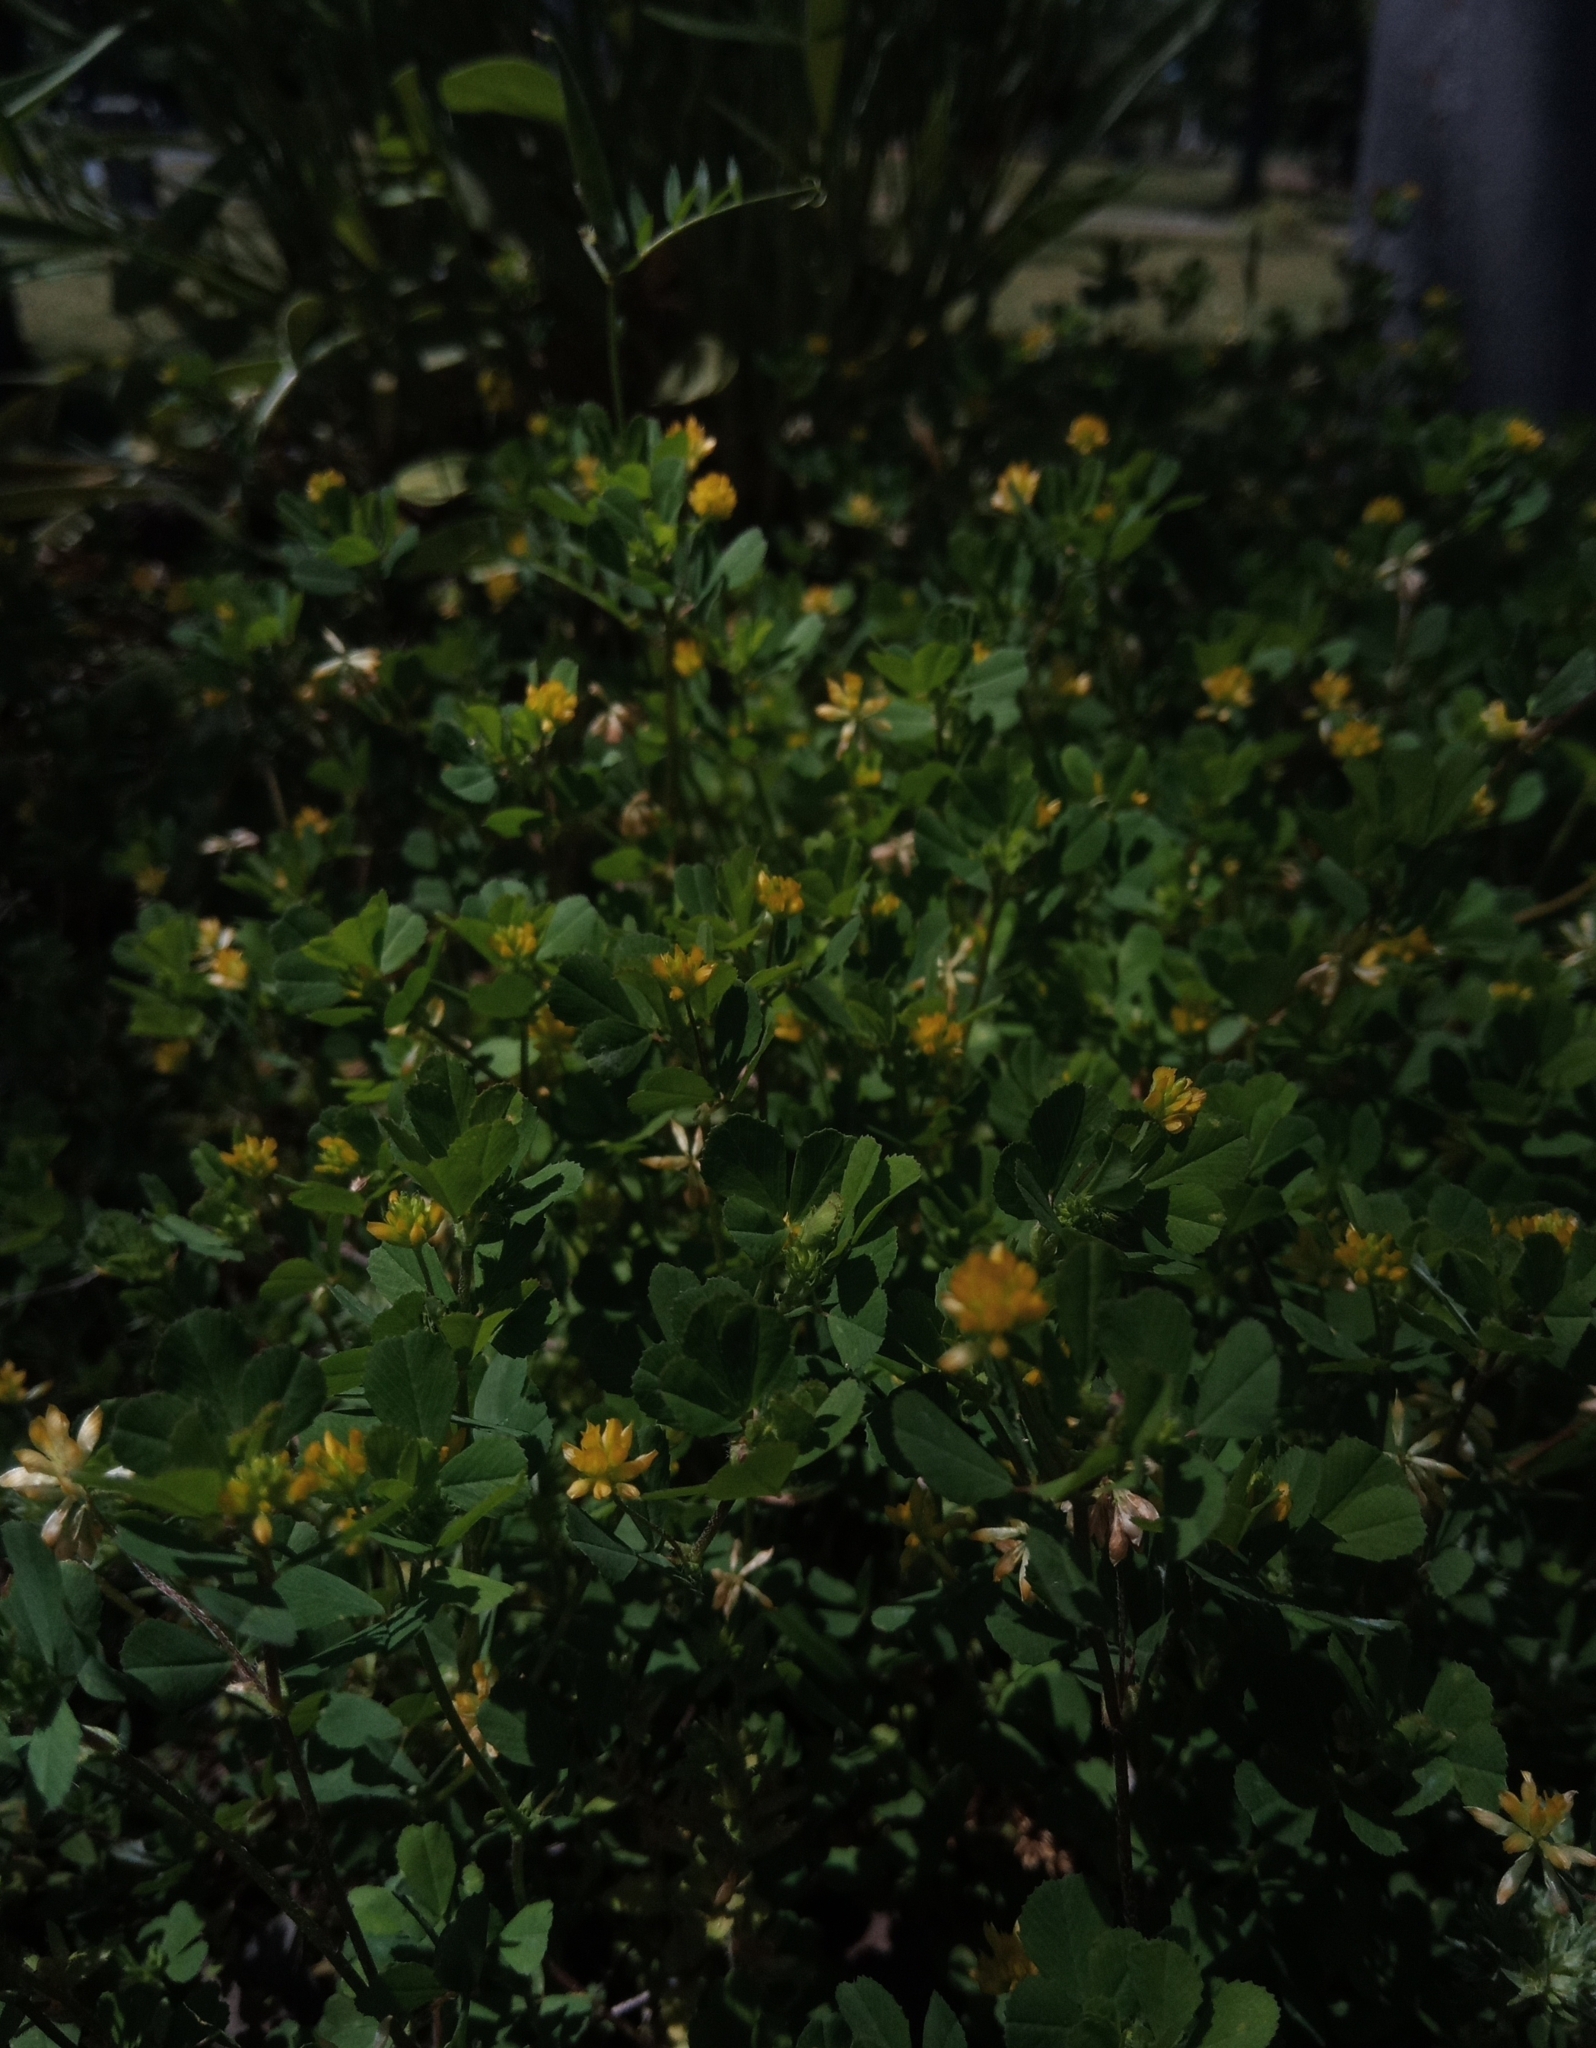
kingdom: Plantae
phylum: Tracheophyta
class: Magnoliopsida
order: Fabales
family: Fabaceae
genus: Trifolium
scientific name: Trifolium dubium
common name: Suckling clover
